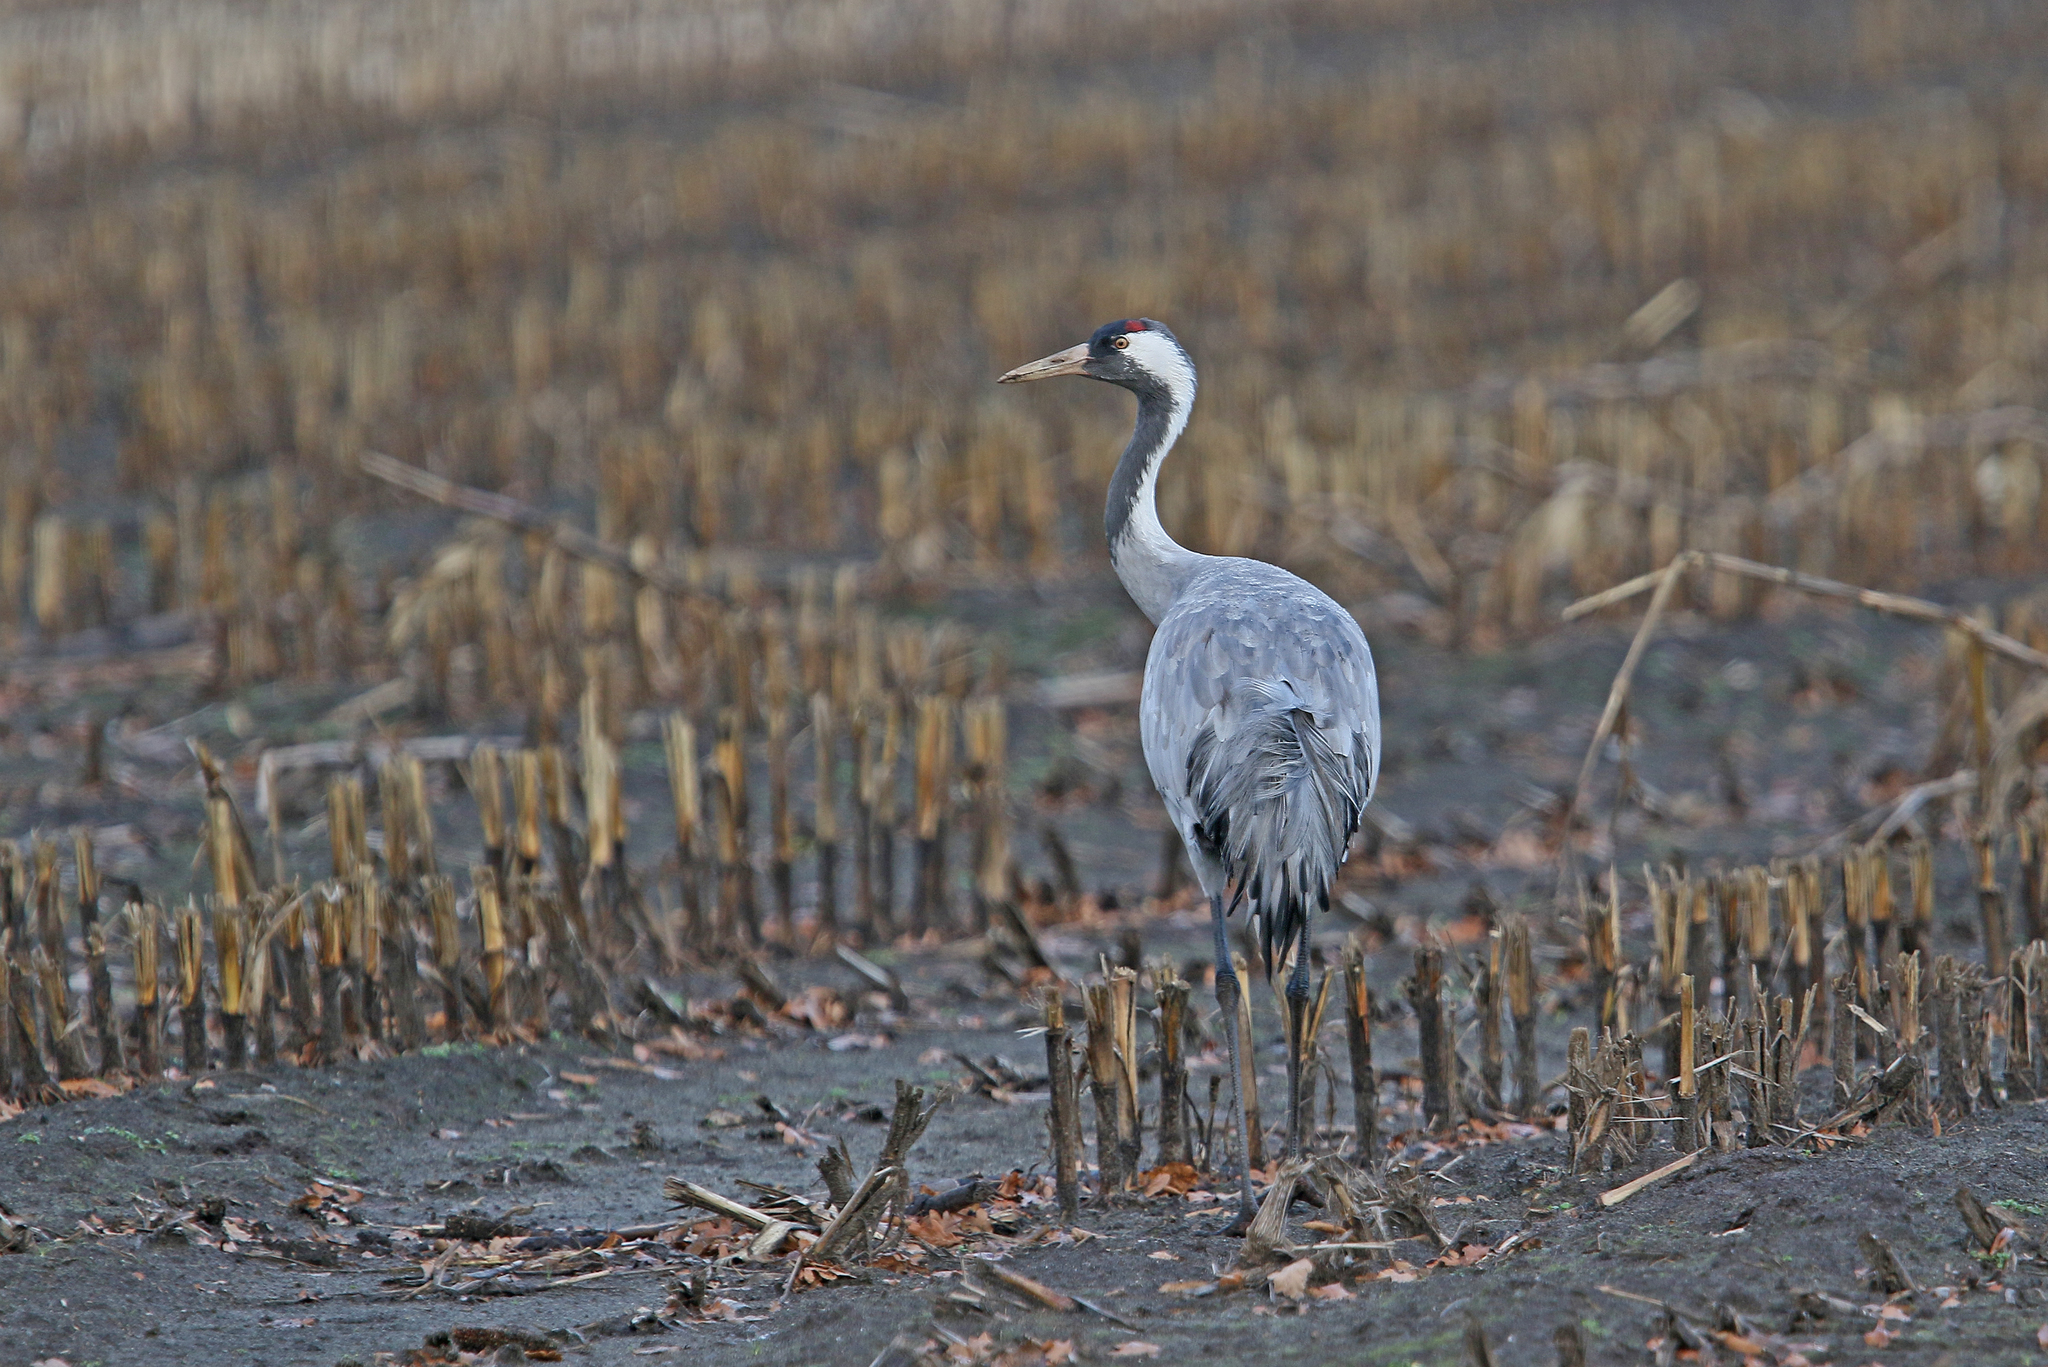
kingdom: Animalia
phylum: Chordata
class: Aves
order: Gruiformes
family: Gruidae
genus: Grus
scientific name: Grus grus
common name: Common crane
